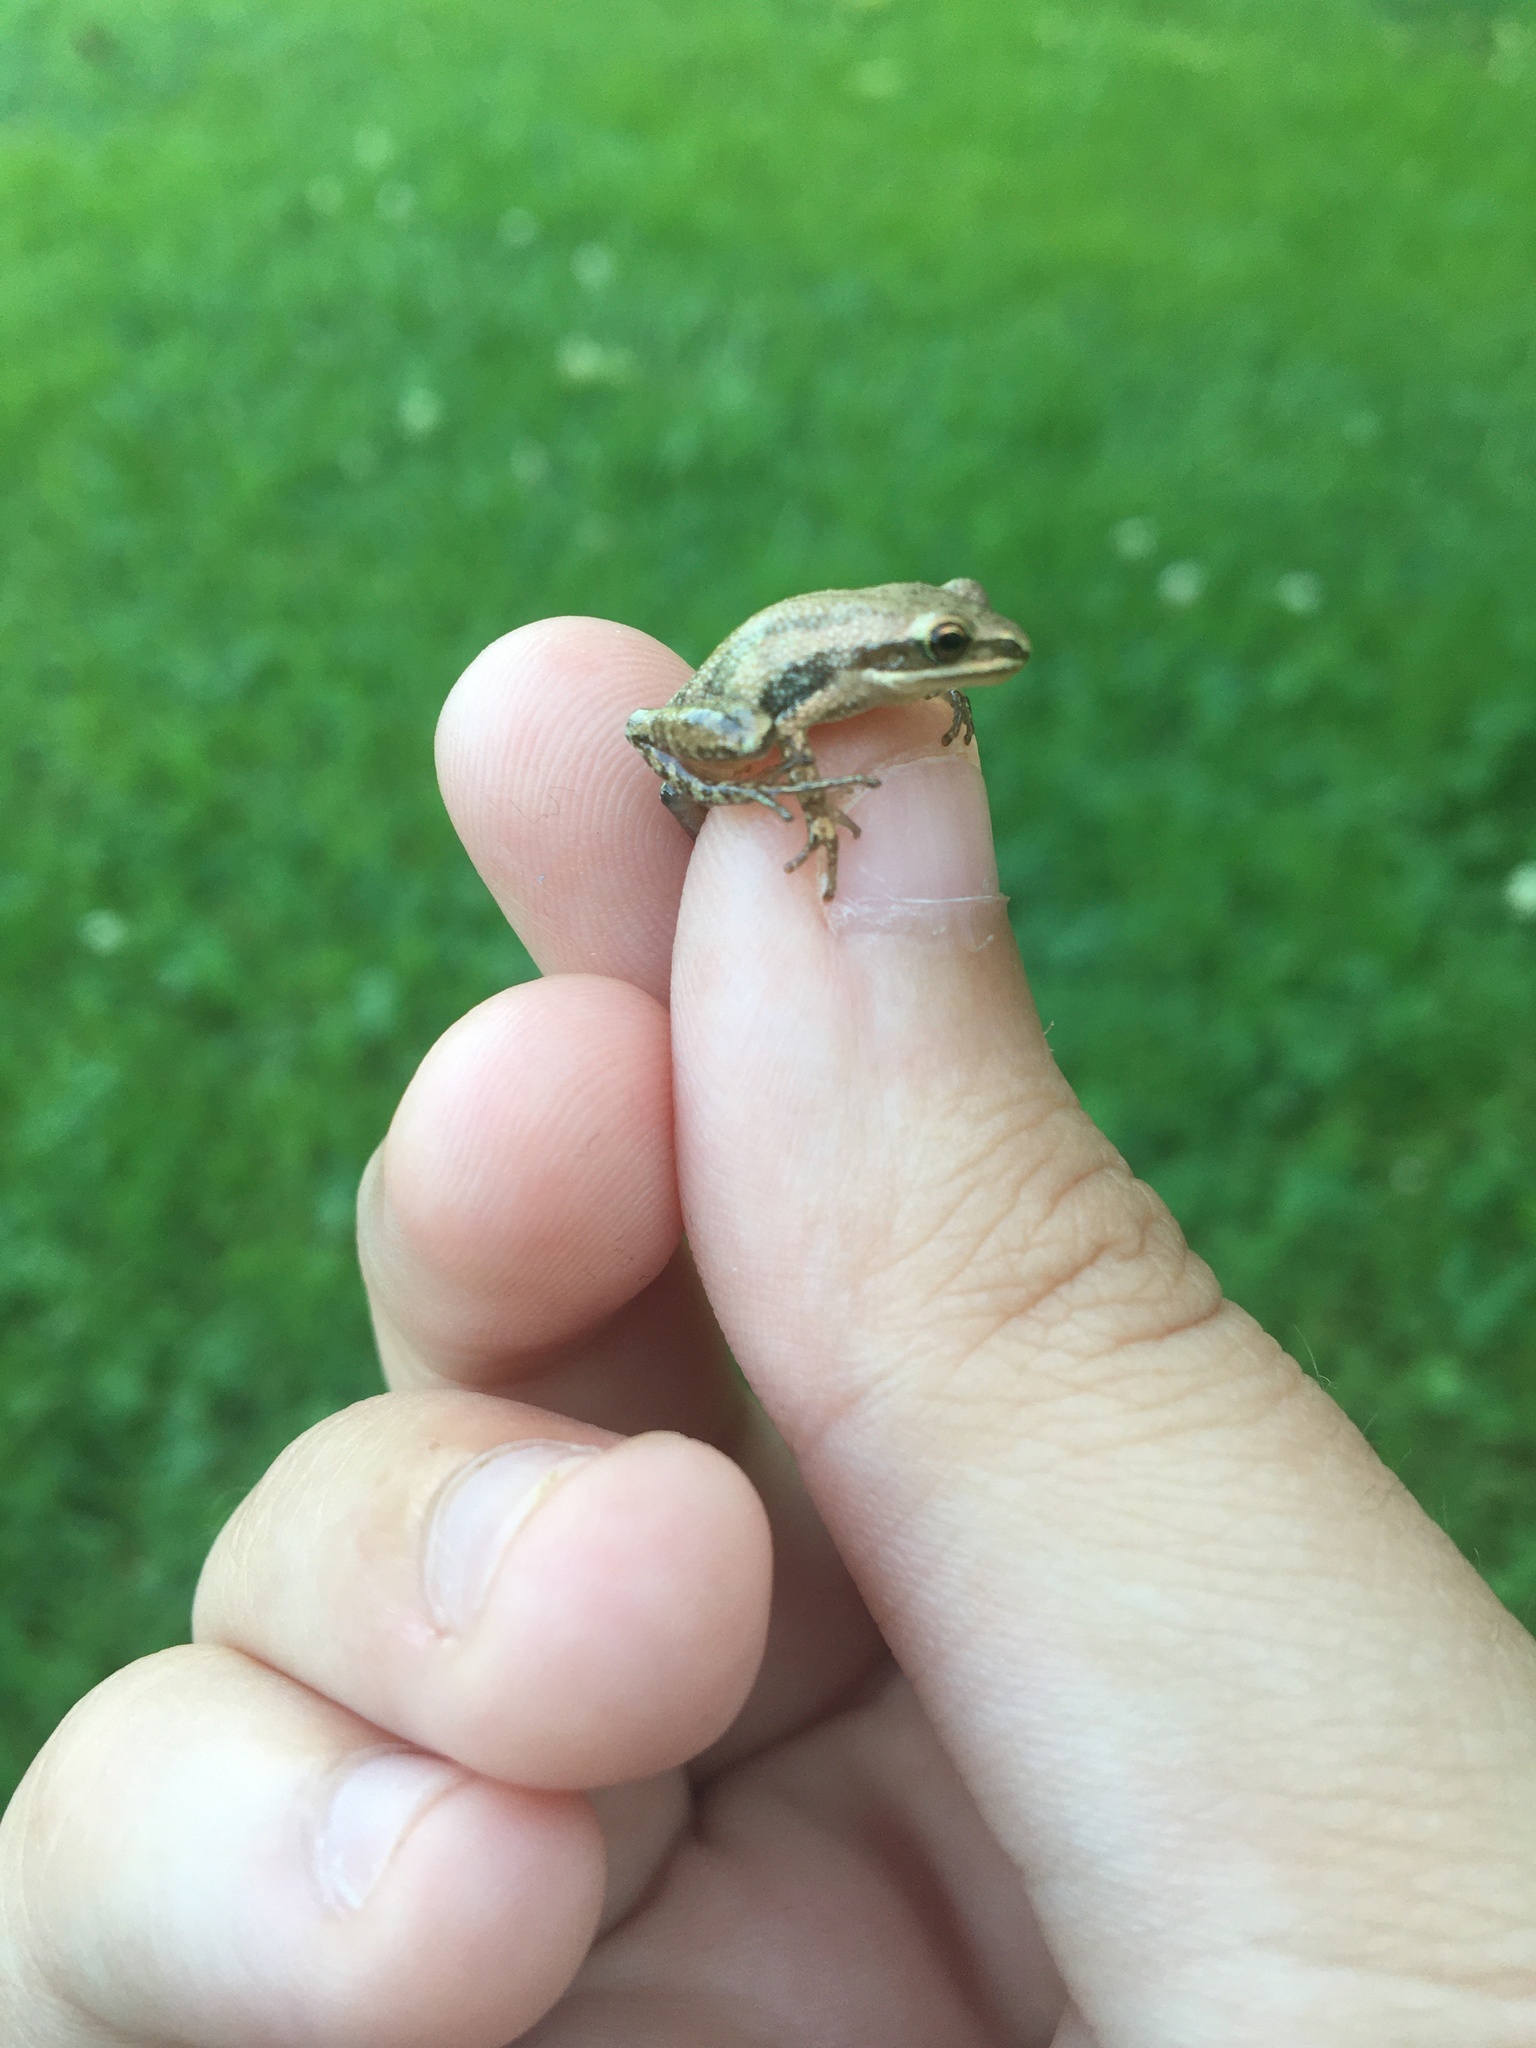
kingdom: Animalia
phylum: Chordata
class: Amphibia
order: Anura
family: Hylidae
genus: Pseudacris
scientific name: Pseudacris triseriata
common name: Western chorus frog
